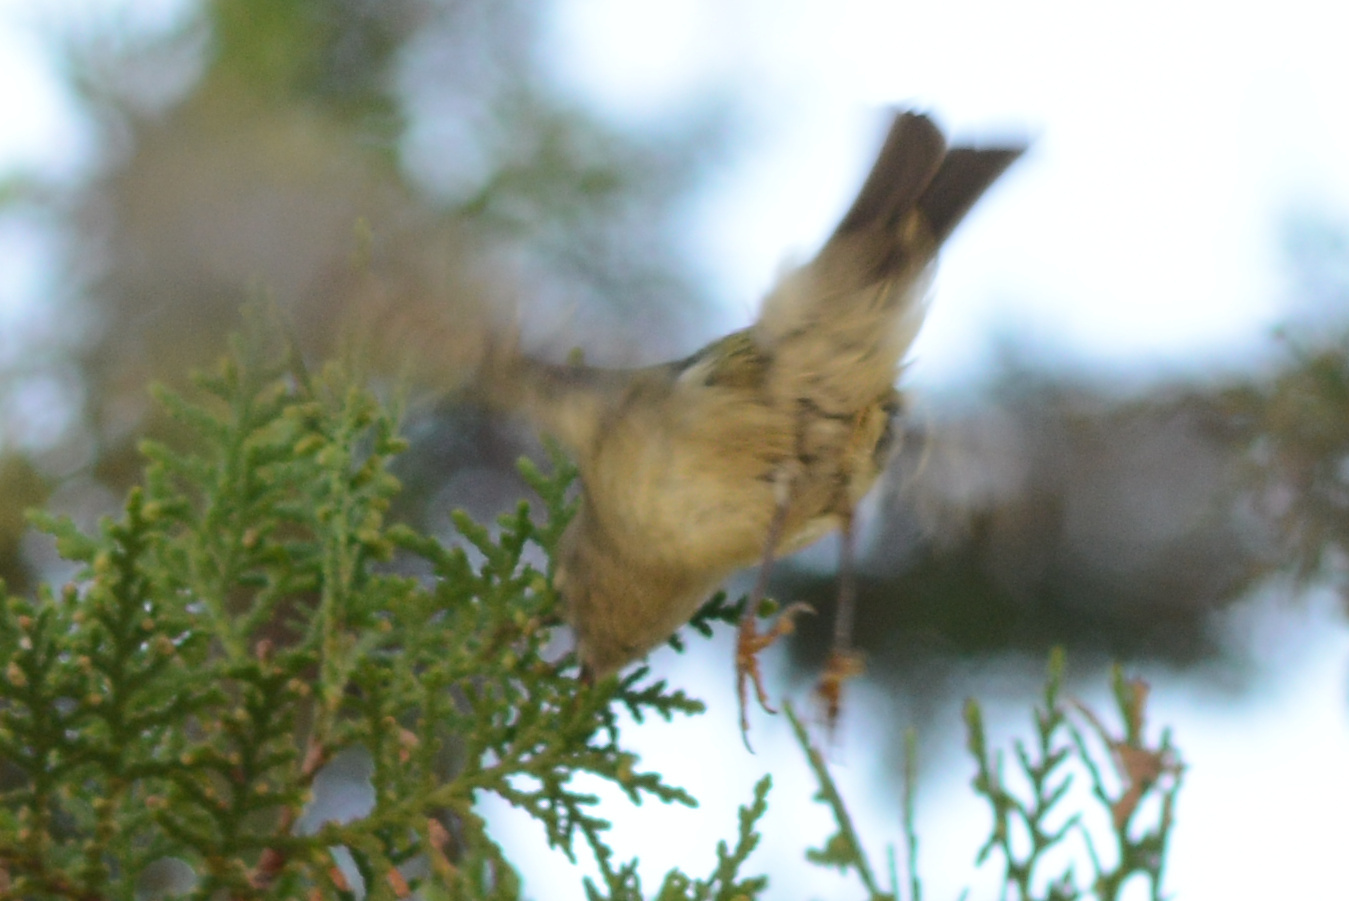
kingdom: Animalia
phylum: Chordata
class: Aves
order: Passeriformes
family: Regulidae
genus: Regulus
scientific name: Regulus calendula
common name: Ruby-crowned kinglet
